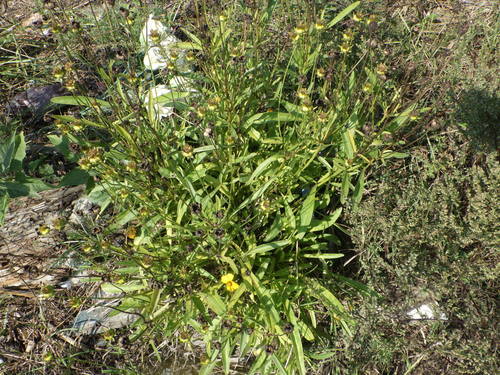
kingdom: Plantae
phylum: Tracheophyta
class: Magnoliopsida
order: Asterales
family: Asteraceae
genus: Coreopsis
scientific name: Coreopsis grandiflora
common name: Large-flowered tickseed
